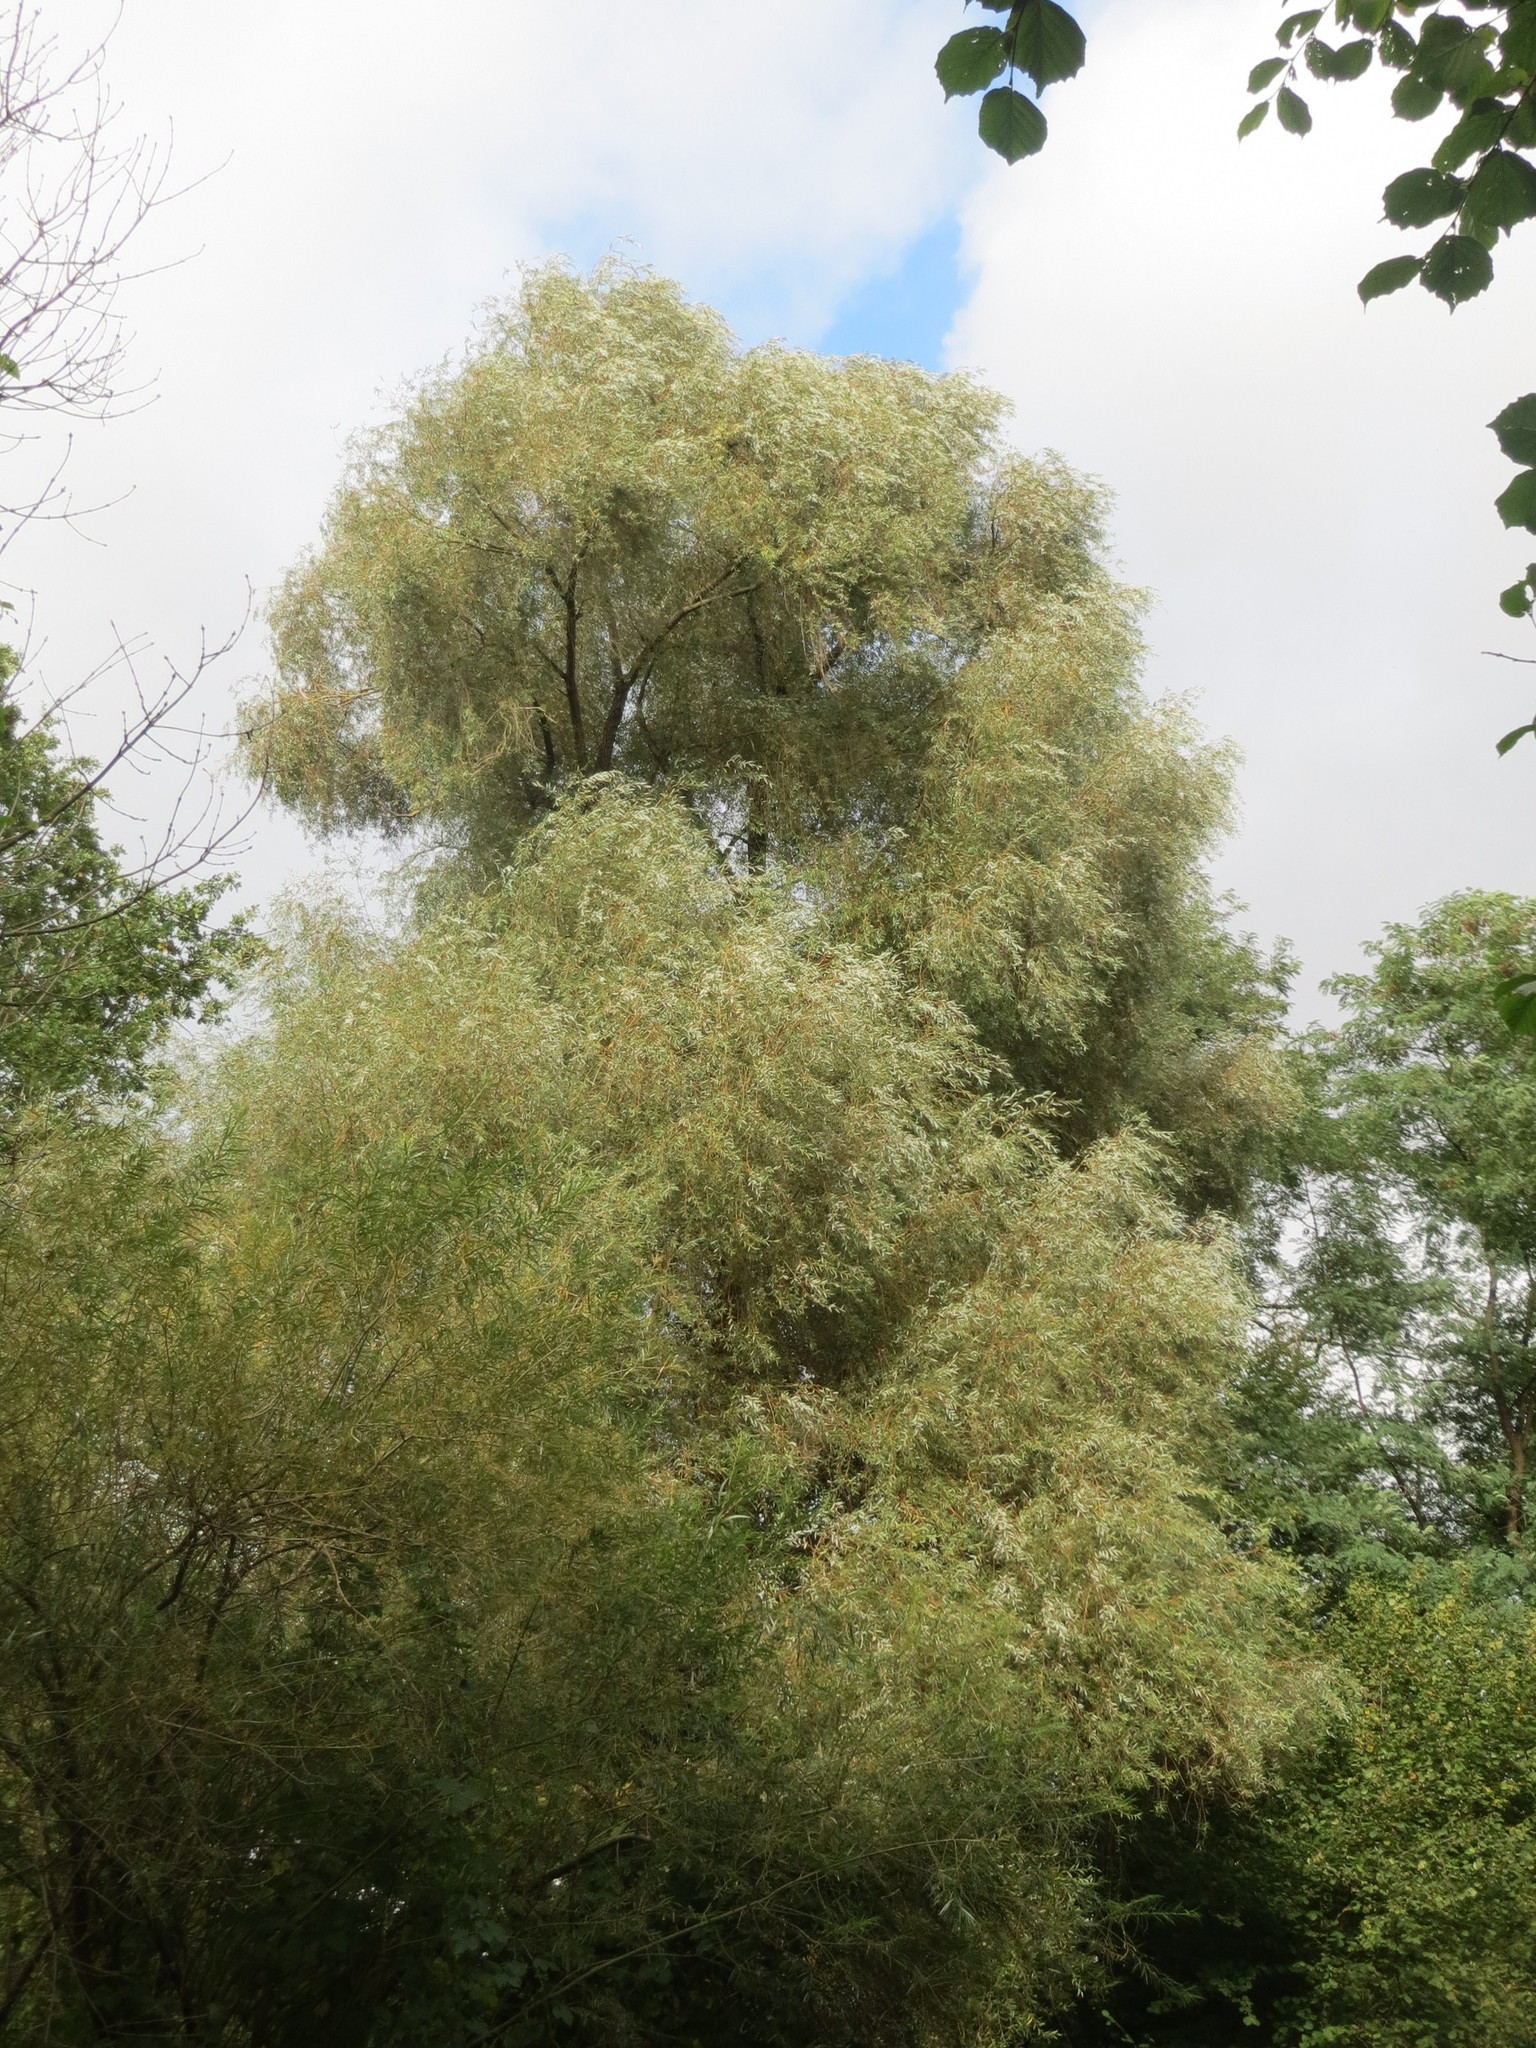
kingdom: Plantae
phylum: Tracheophyta
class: Magnoliopsida
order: Malpighiales
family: Salicaceae
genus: Salix
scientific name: Salix alba
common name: White willow
